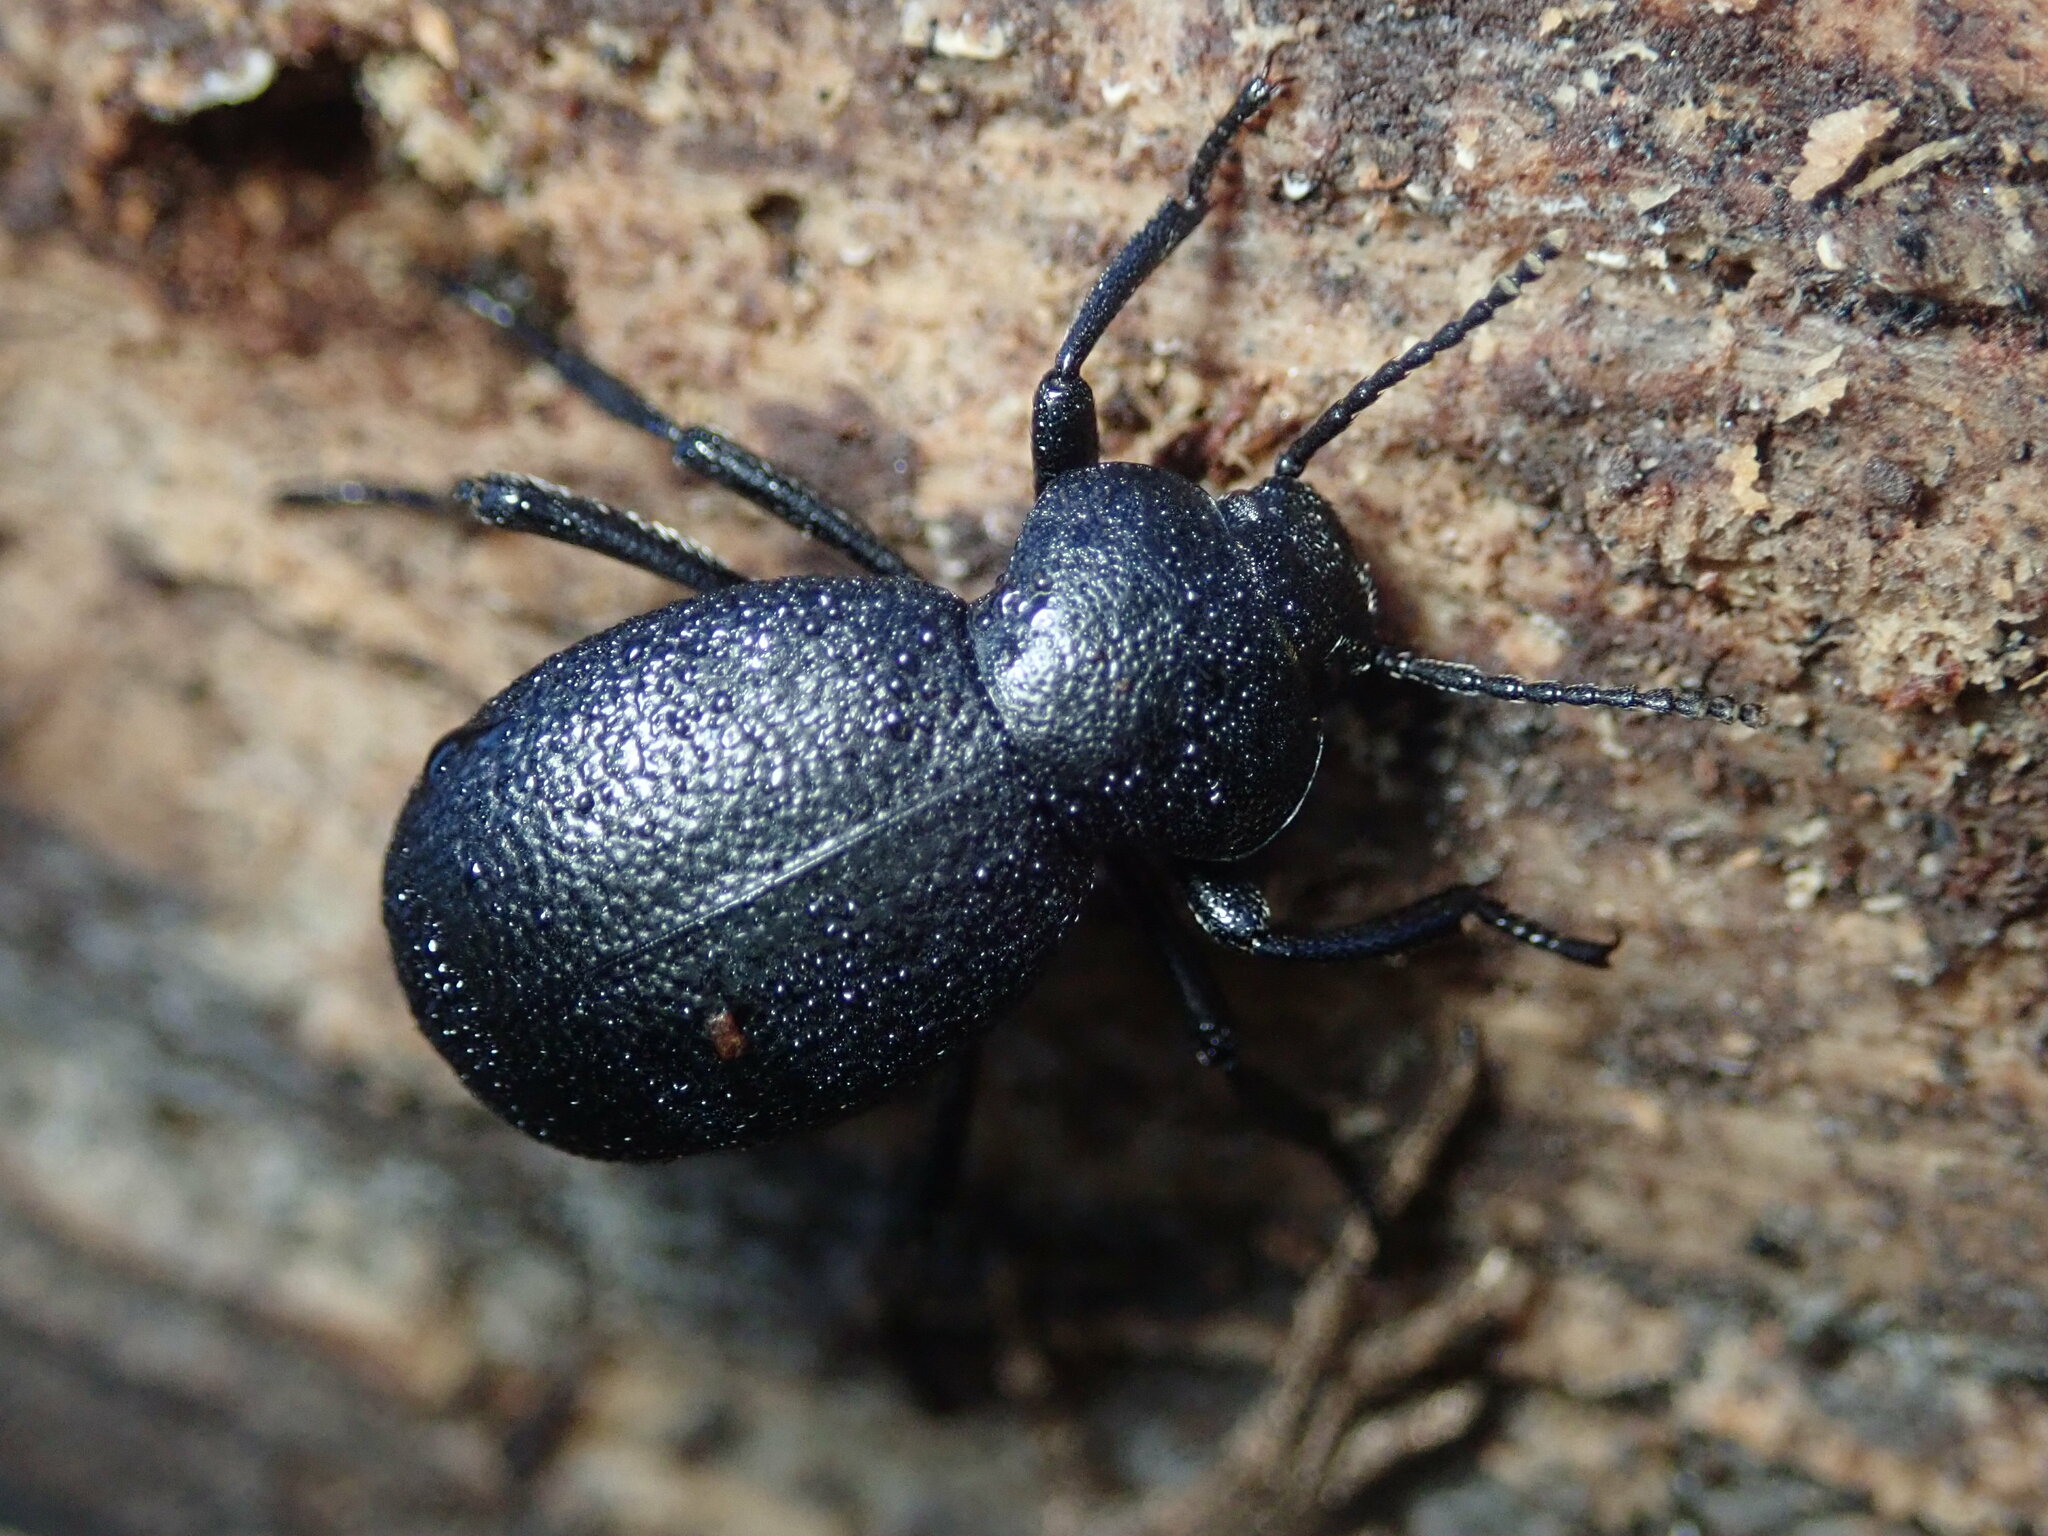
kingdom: Animalia
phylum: Arthropoda
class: Insecta
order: Coleoptera
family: Tenebrionidae
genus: Eleodes
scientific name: Eleodes cordata
